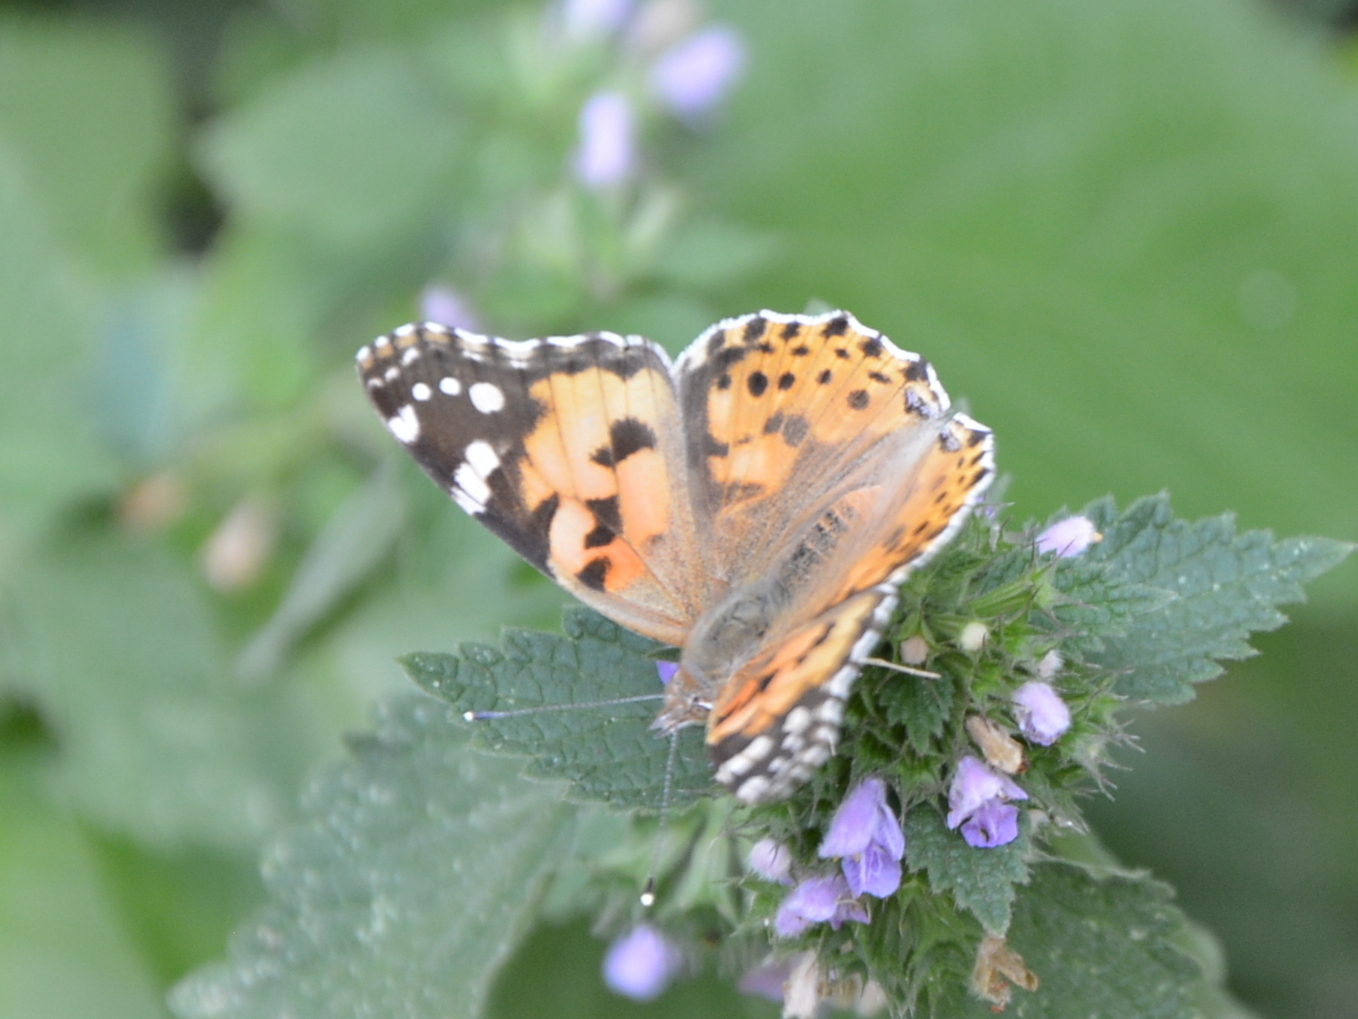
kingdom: Animalia
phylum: Arthropoda
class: Insecta
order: Lepidoptera
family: Nymphalidae
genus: Vanessa
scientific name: Vanessa cardui
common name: Painted lady
